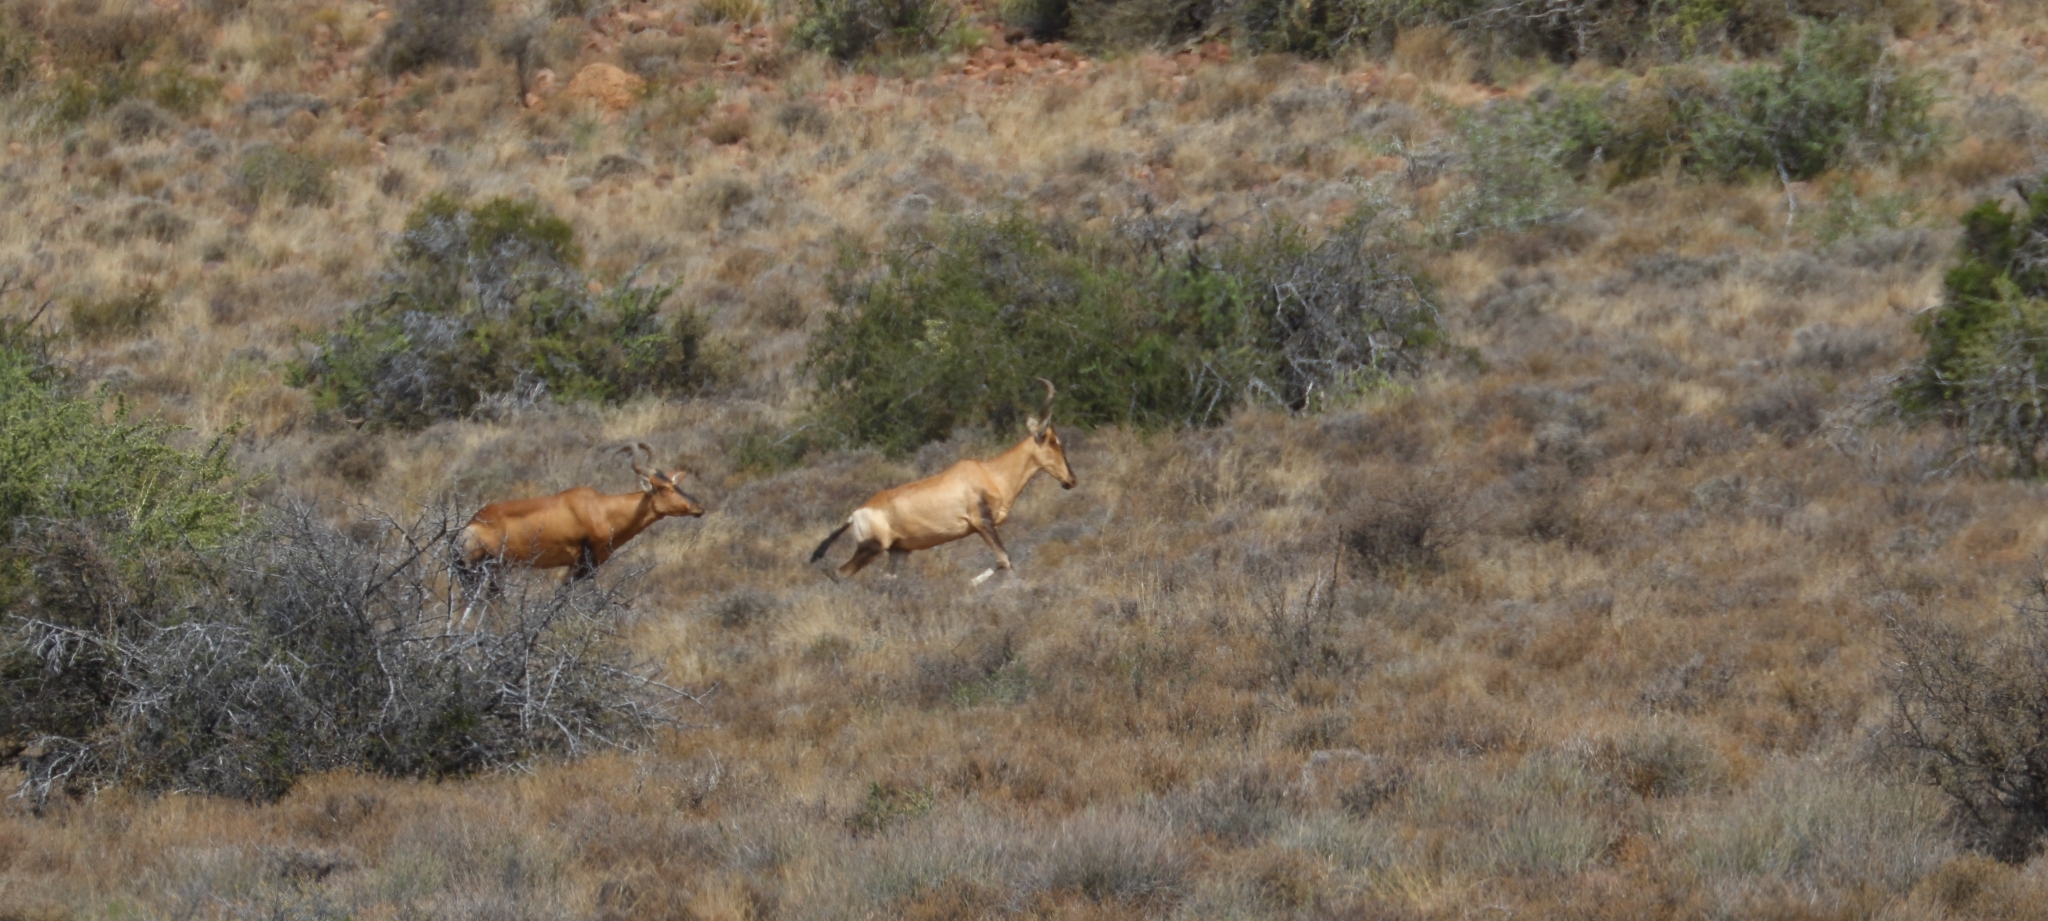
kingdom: Animalia
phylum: Chordata
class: Mammalia
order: Artiodactyla
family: Bovidae
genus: Alcelaphus
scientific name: Alcelaphus caama
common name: Red hartebeest
